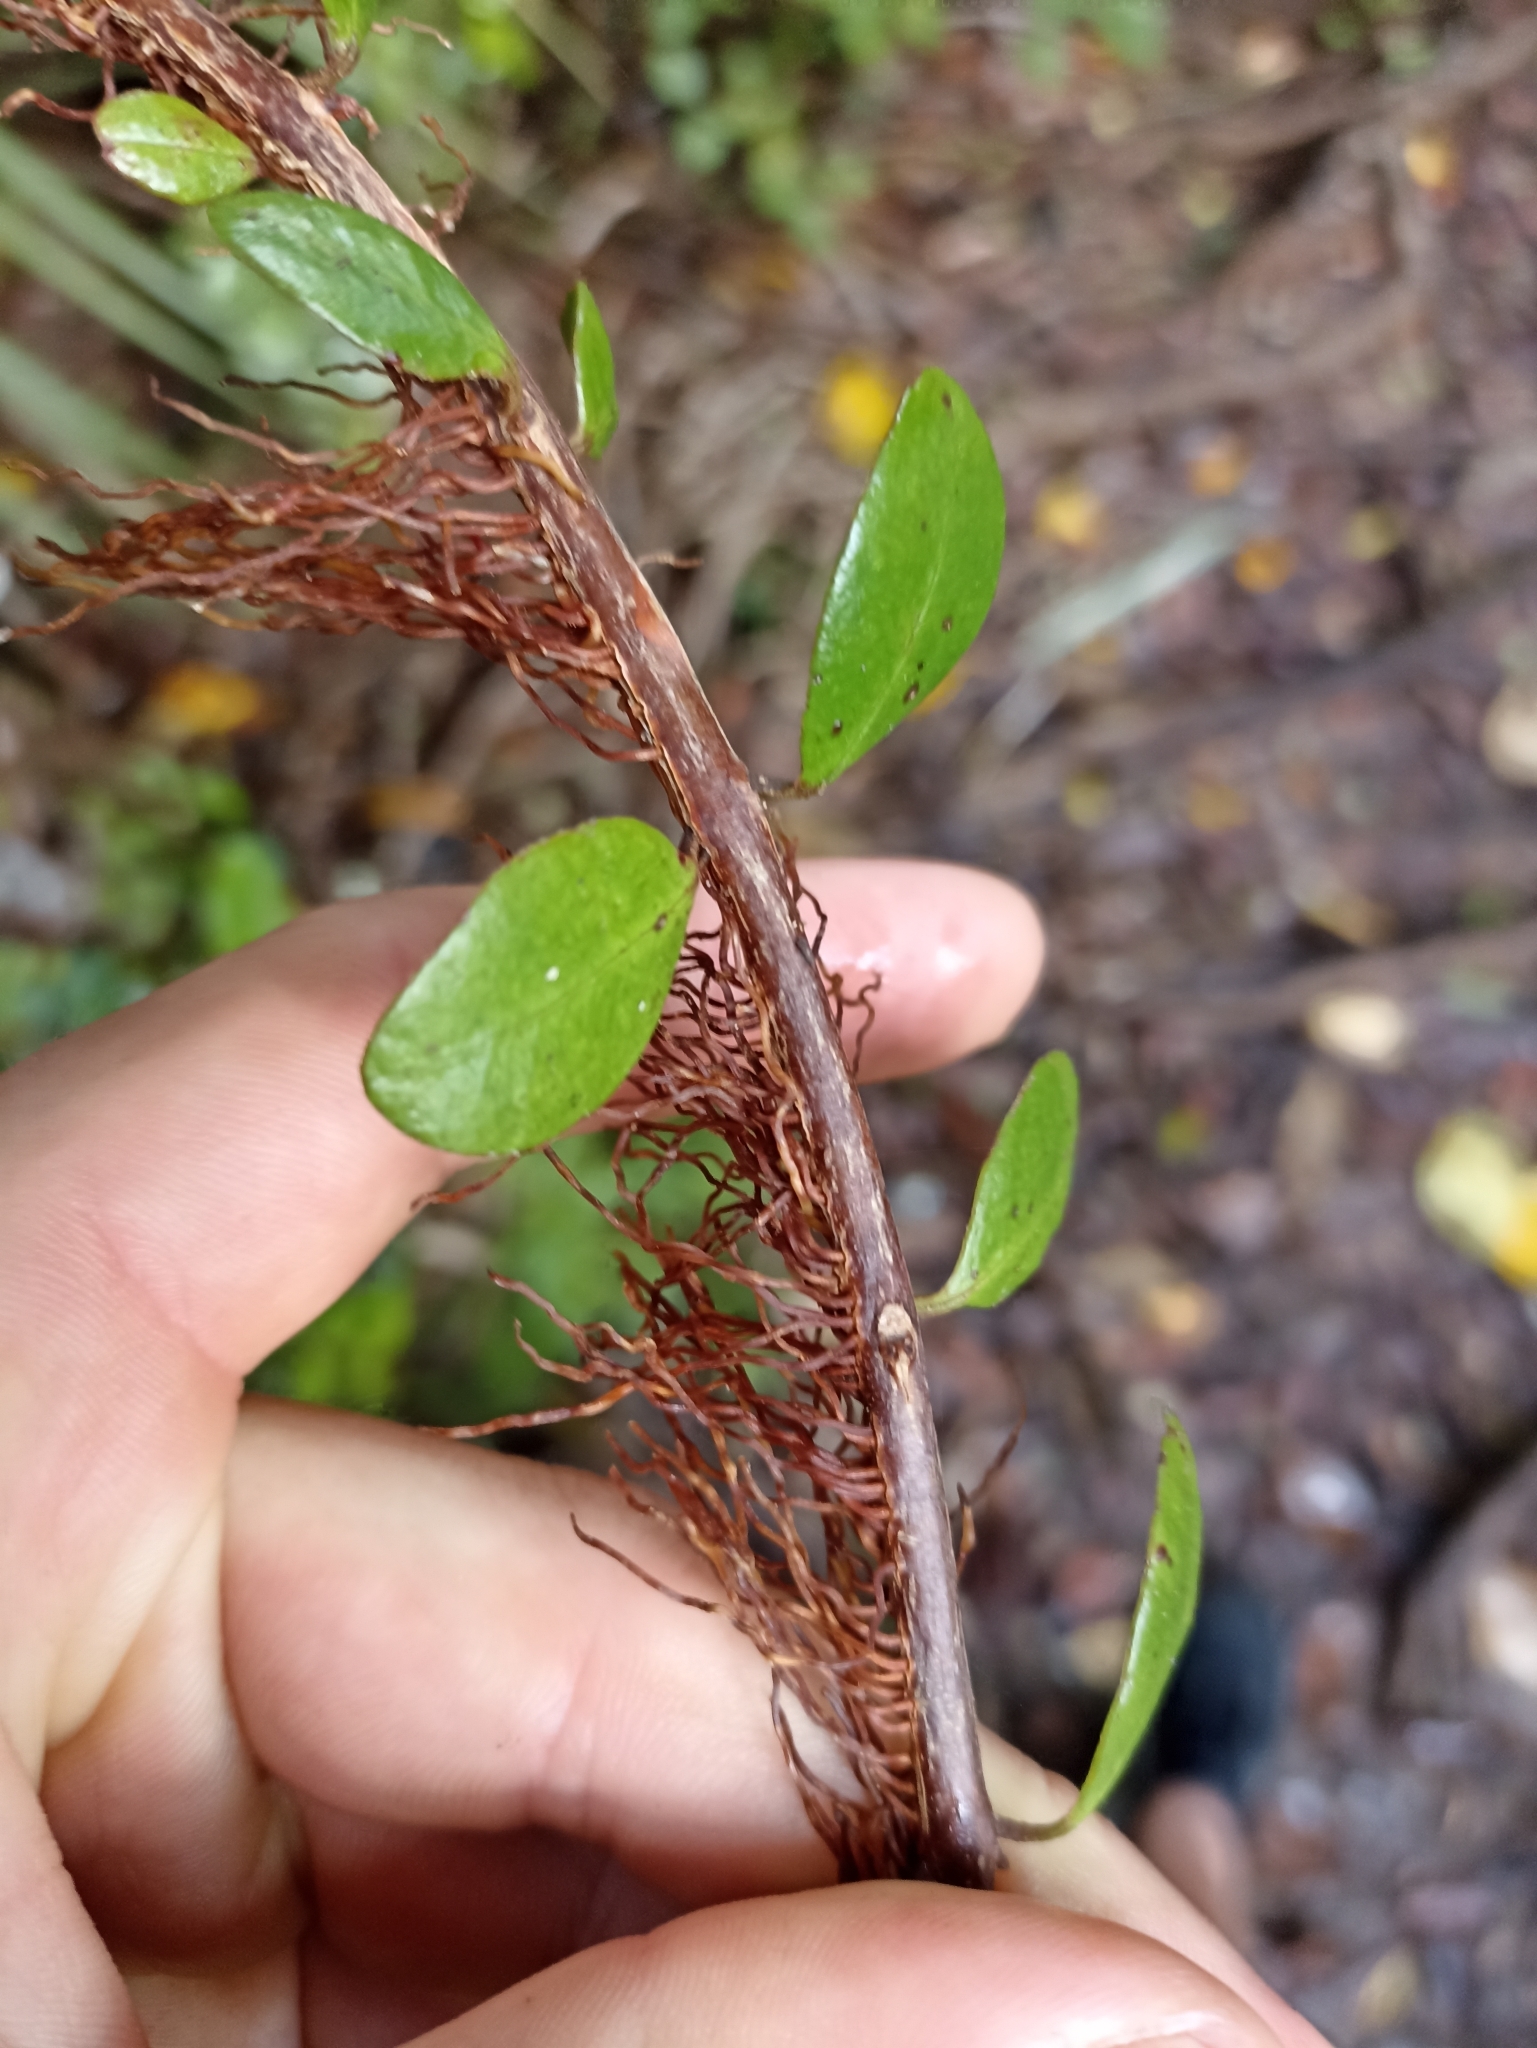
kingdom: Plantae
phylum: Tracheophyta
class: Magnoliopsida
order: Myrtales
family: Myrtaceae
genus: Metrosideros
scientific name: Metrosideros fulgens
